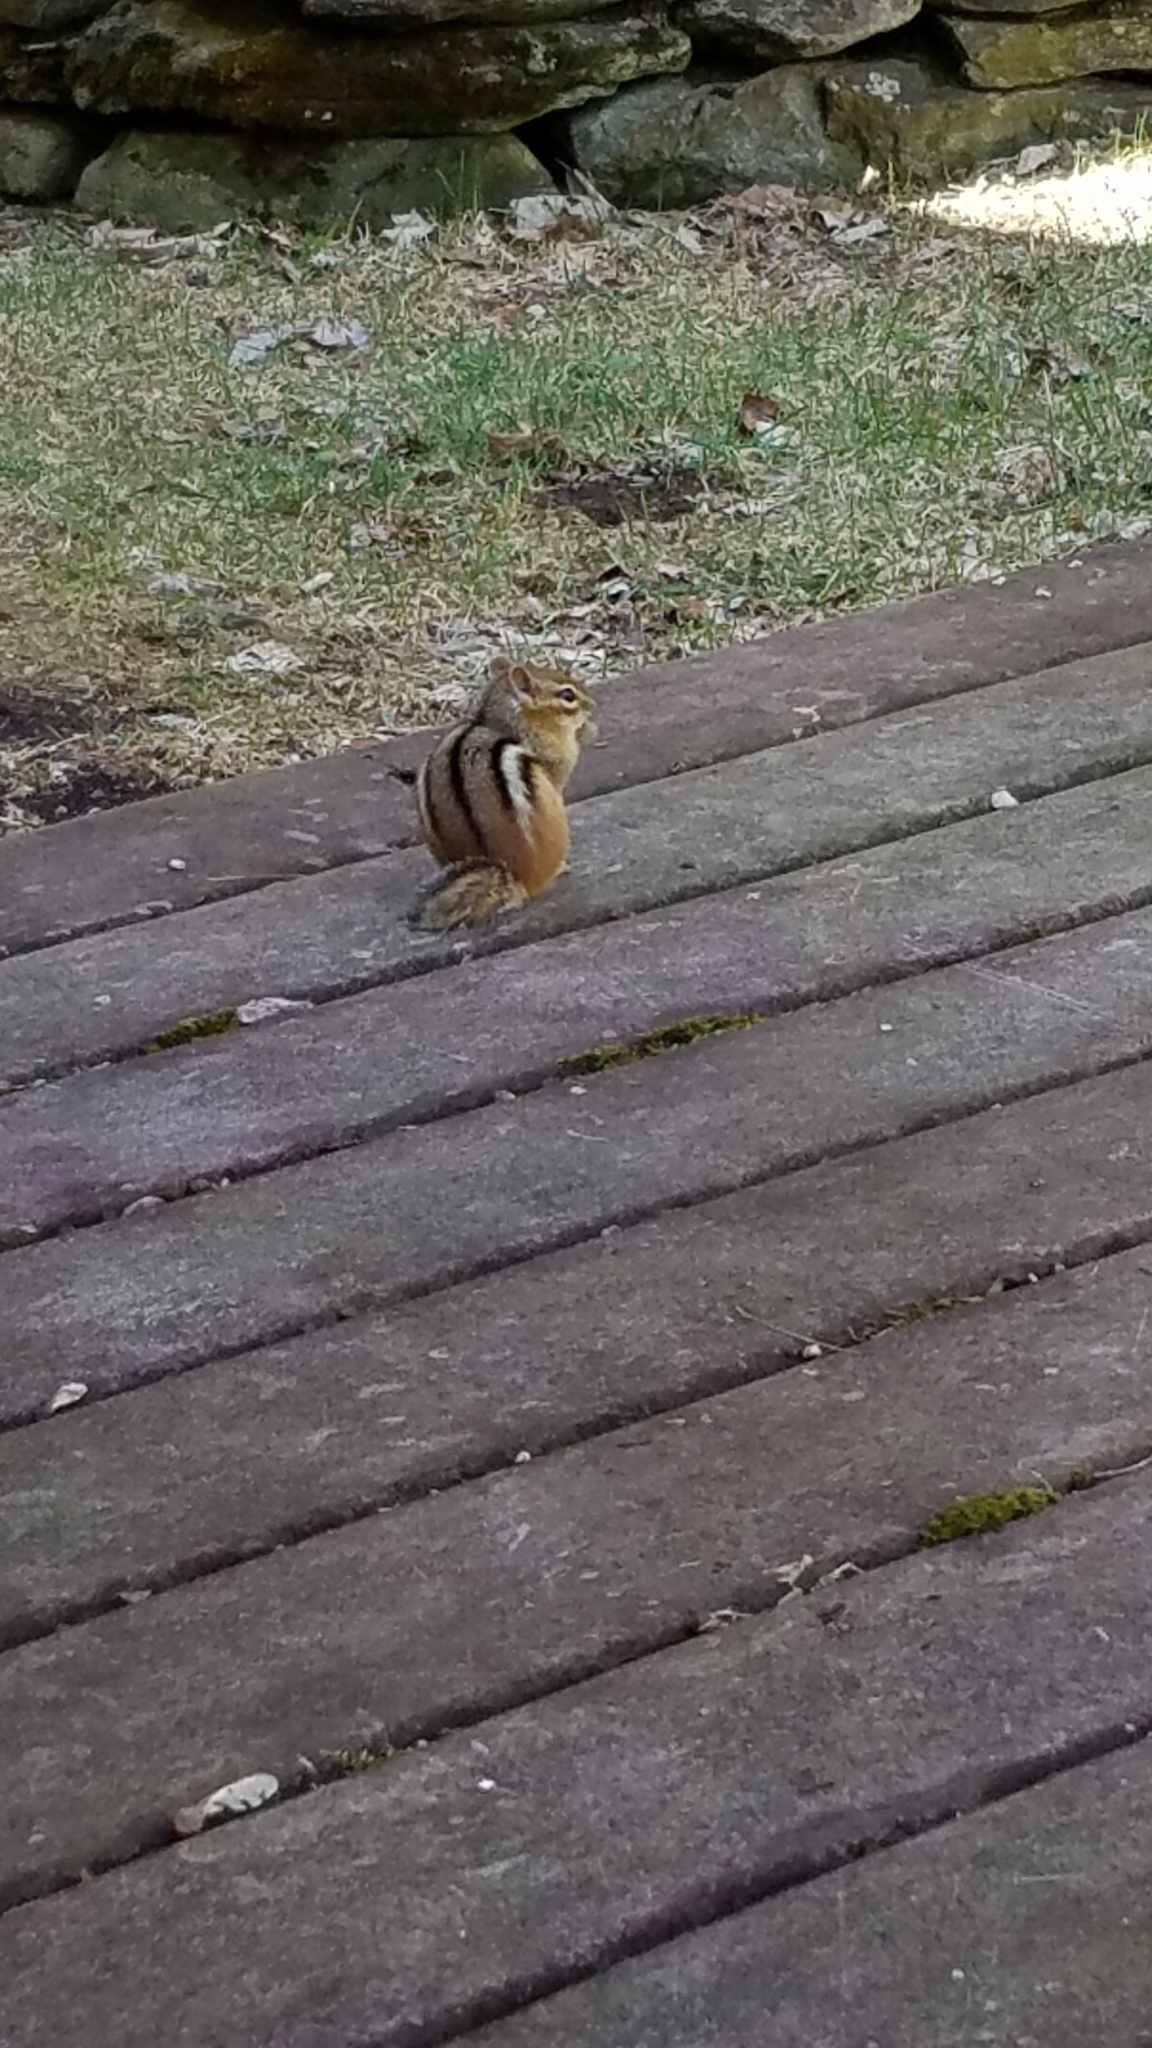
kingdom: Animalia
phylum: Chordata
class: Mammalia
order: Rodentia
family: Sciuridae
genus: Tamias
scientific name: Tamias striatus
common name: Eastern chipmunk
